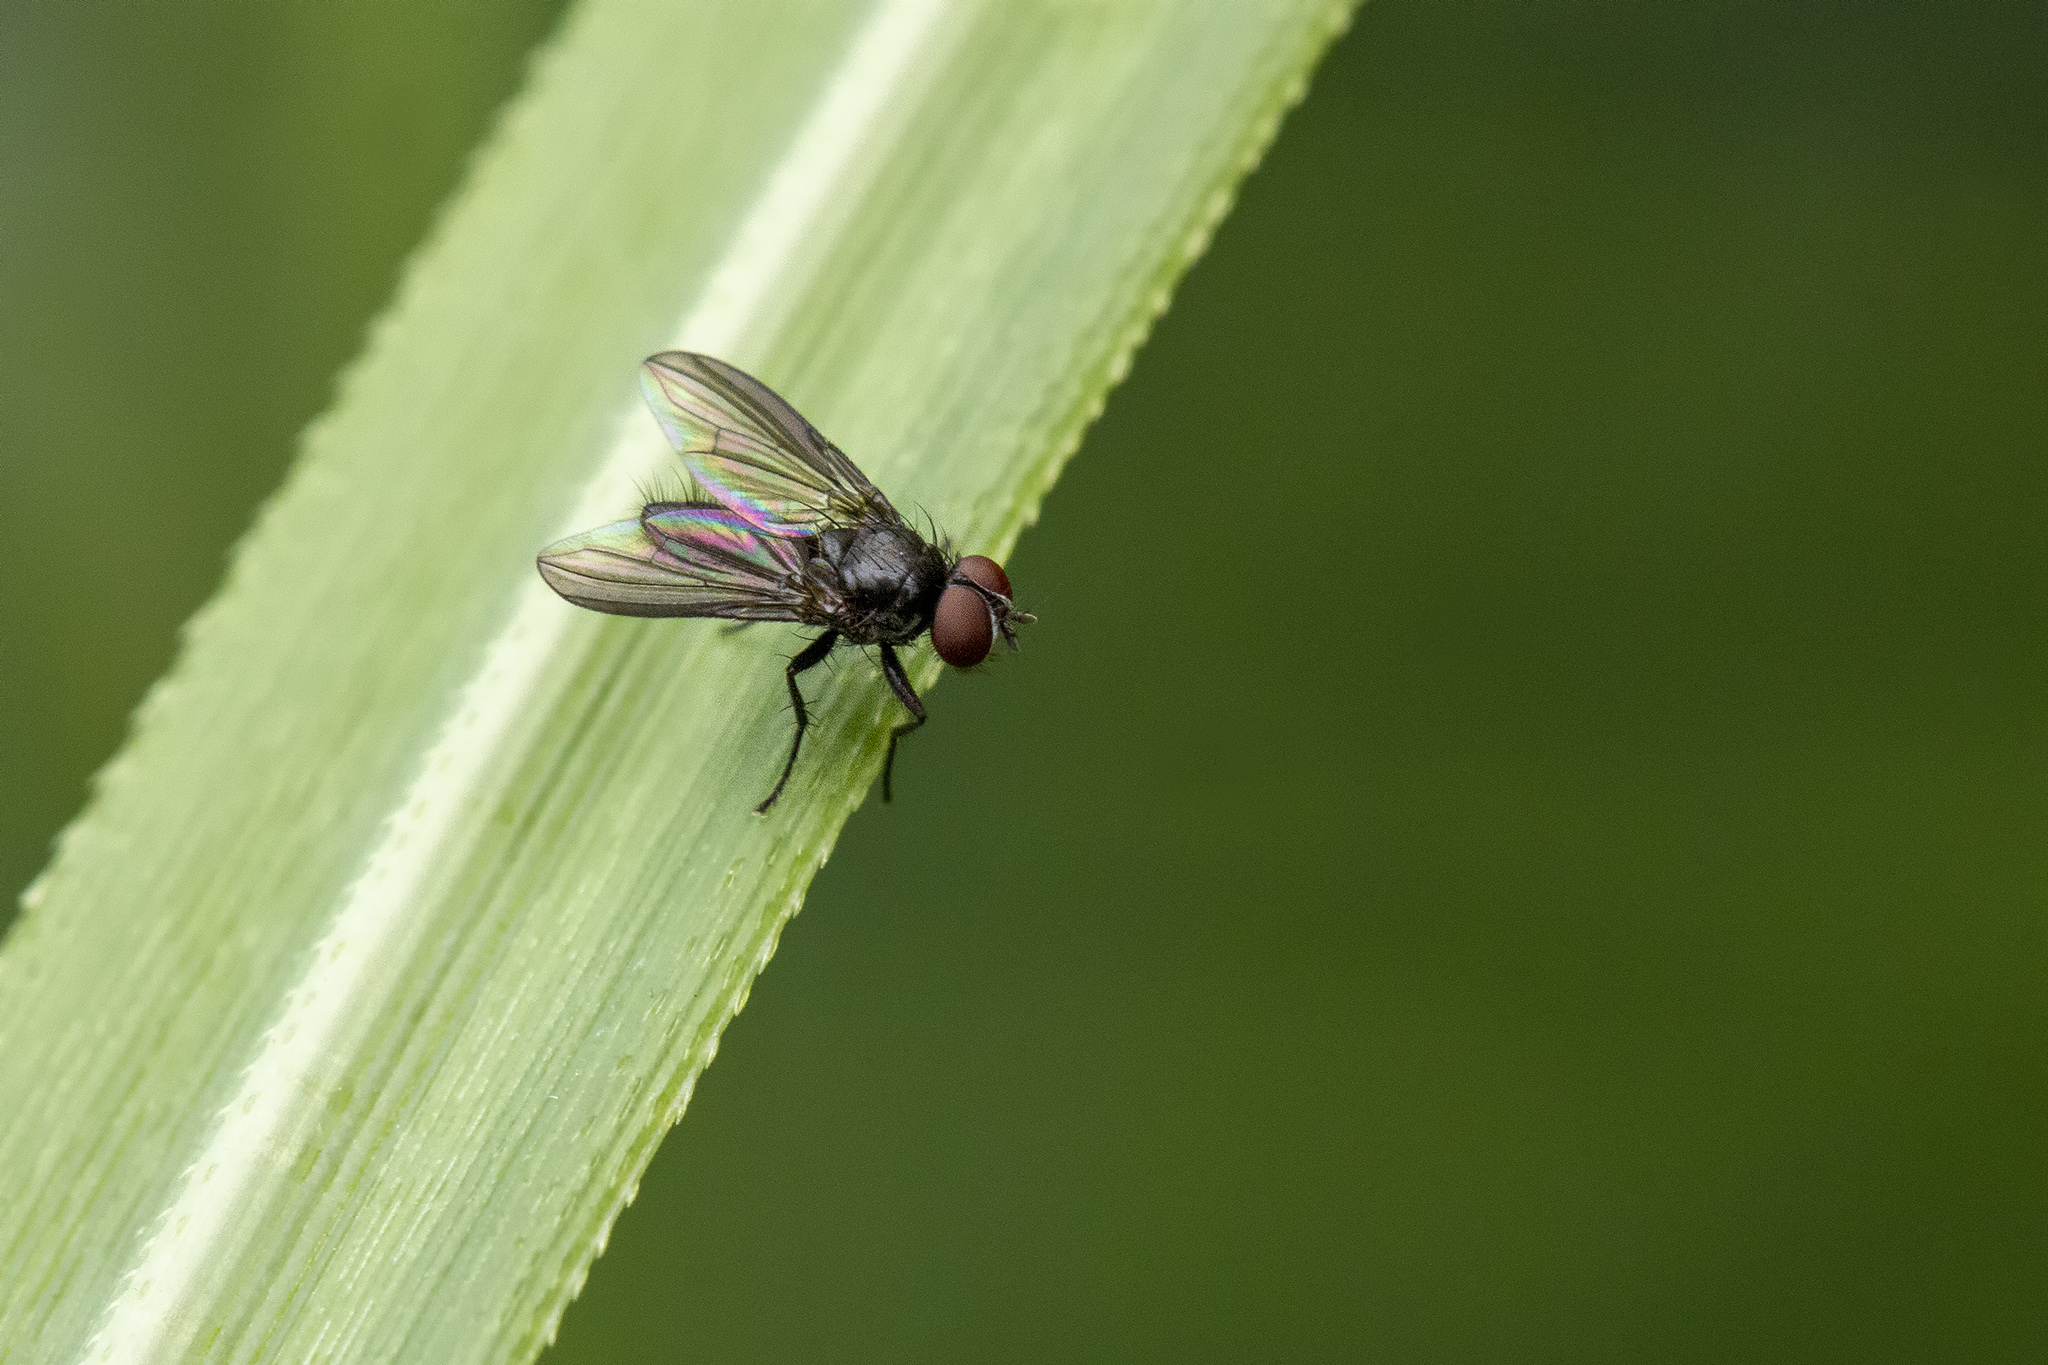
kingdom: Animalia
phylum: Arthropoda
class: Insecta
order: Diptera
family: Calliphoridae
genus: Melanomya
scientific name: Melanomya nana
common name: Little black blowfly
